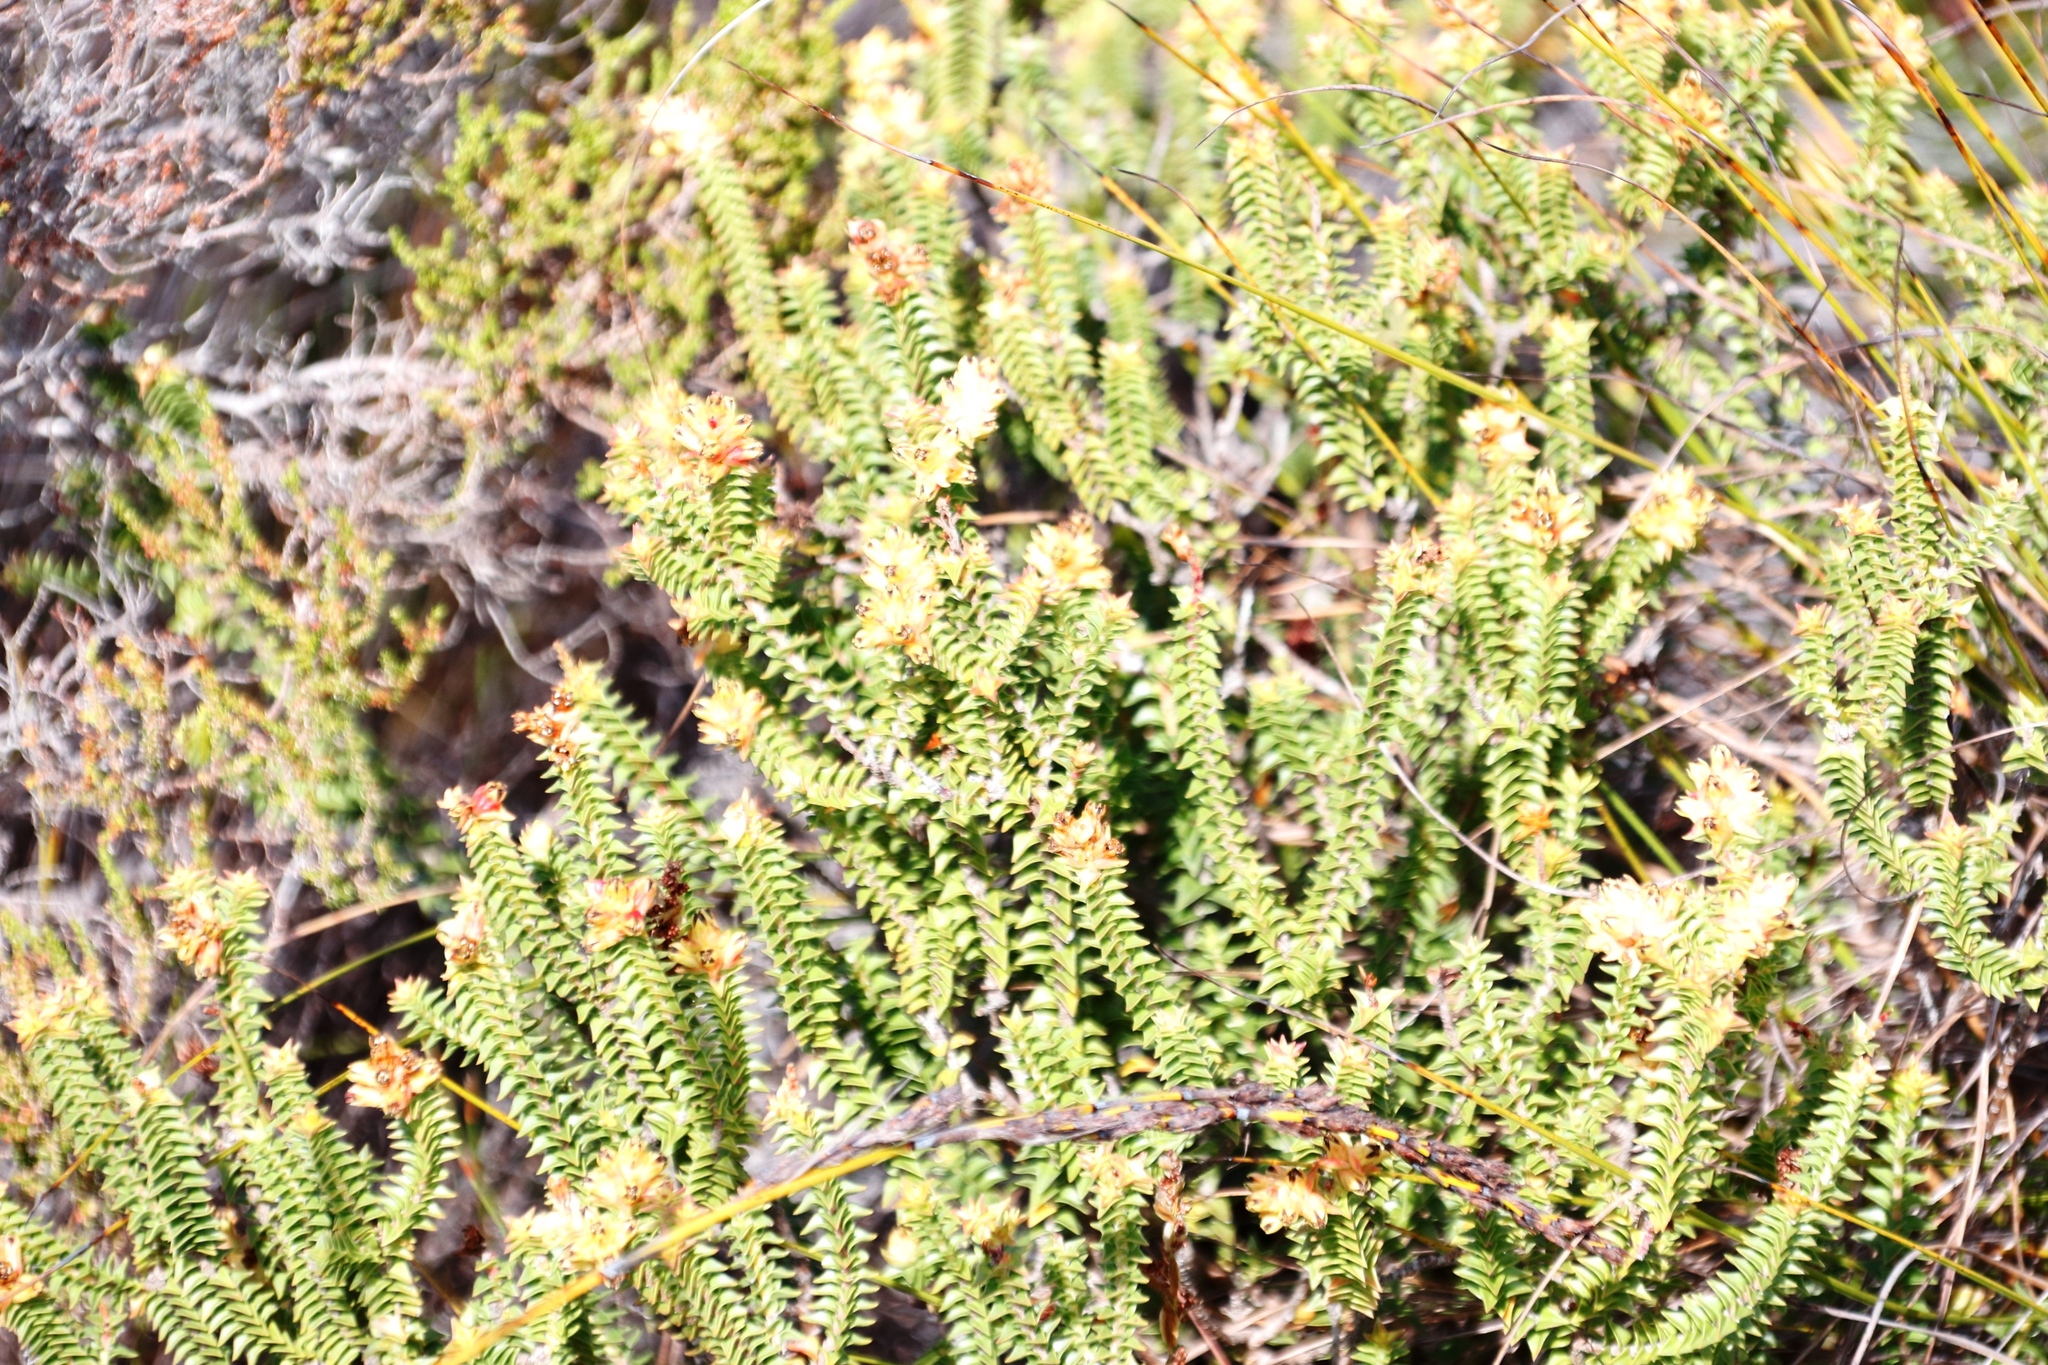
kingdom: Plantae
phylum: Tracheophyta
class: Magnoliopsida
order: Myrtales
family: Penaeaceae
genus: Penaea
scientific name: Penaea mucronata
